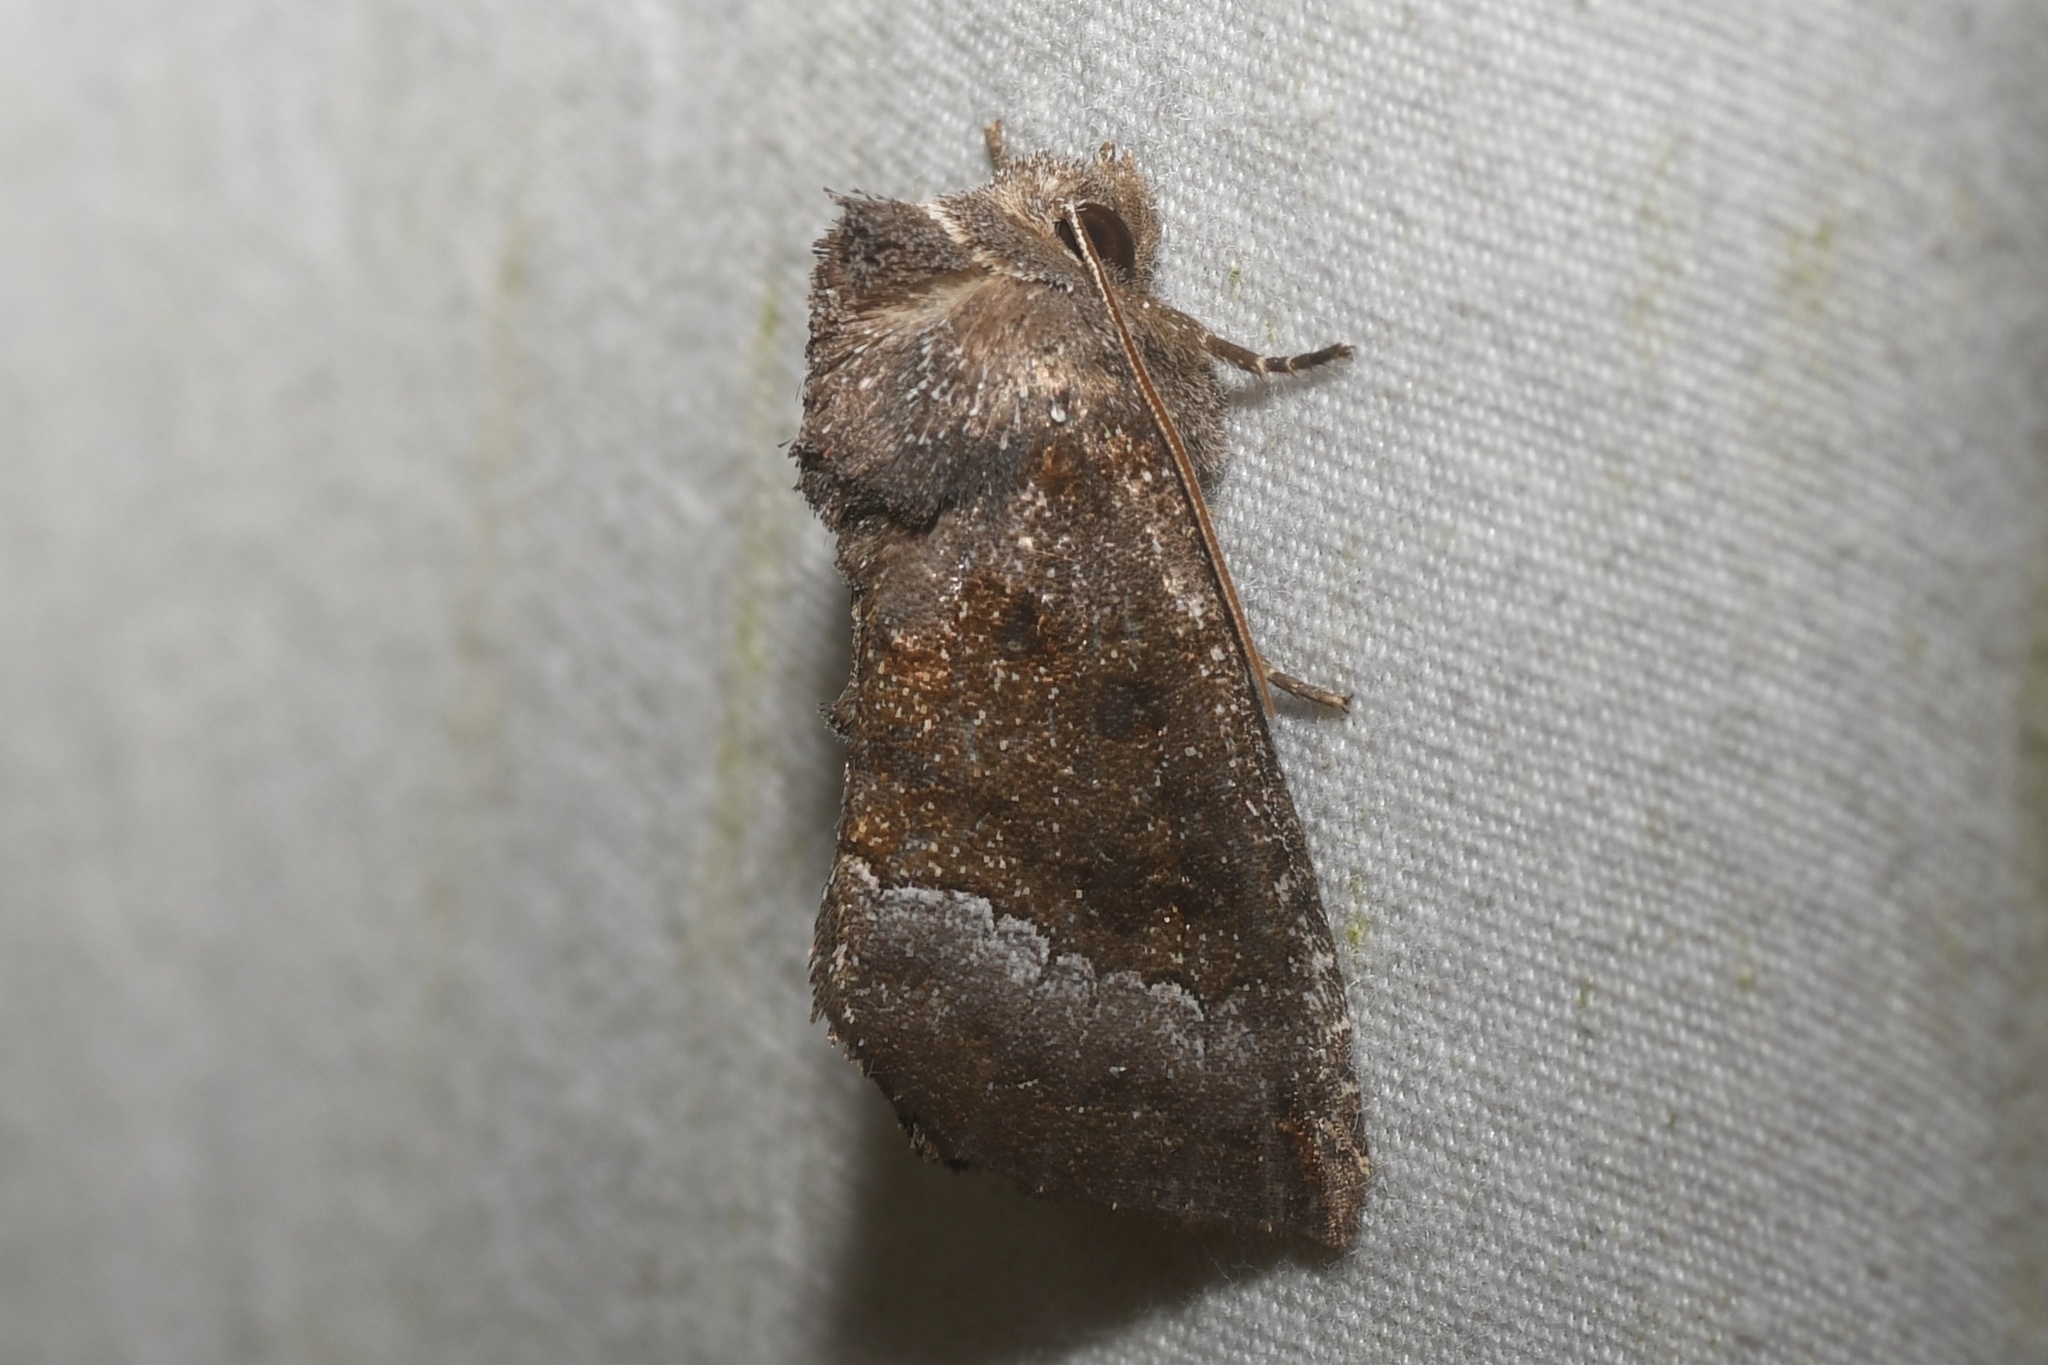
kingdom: Animalia
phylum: Arthropoda
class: Insecta
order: Lepidoptera
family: Noctuidae
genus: Papaipema
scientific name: Papaipema nelita
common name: Coneflower borer moth
